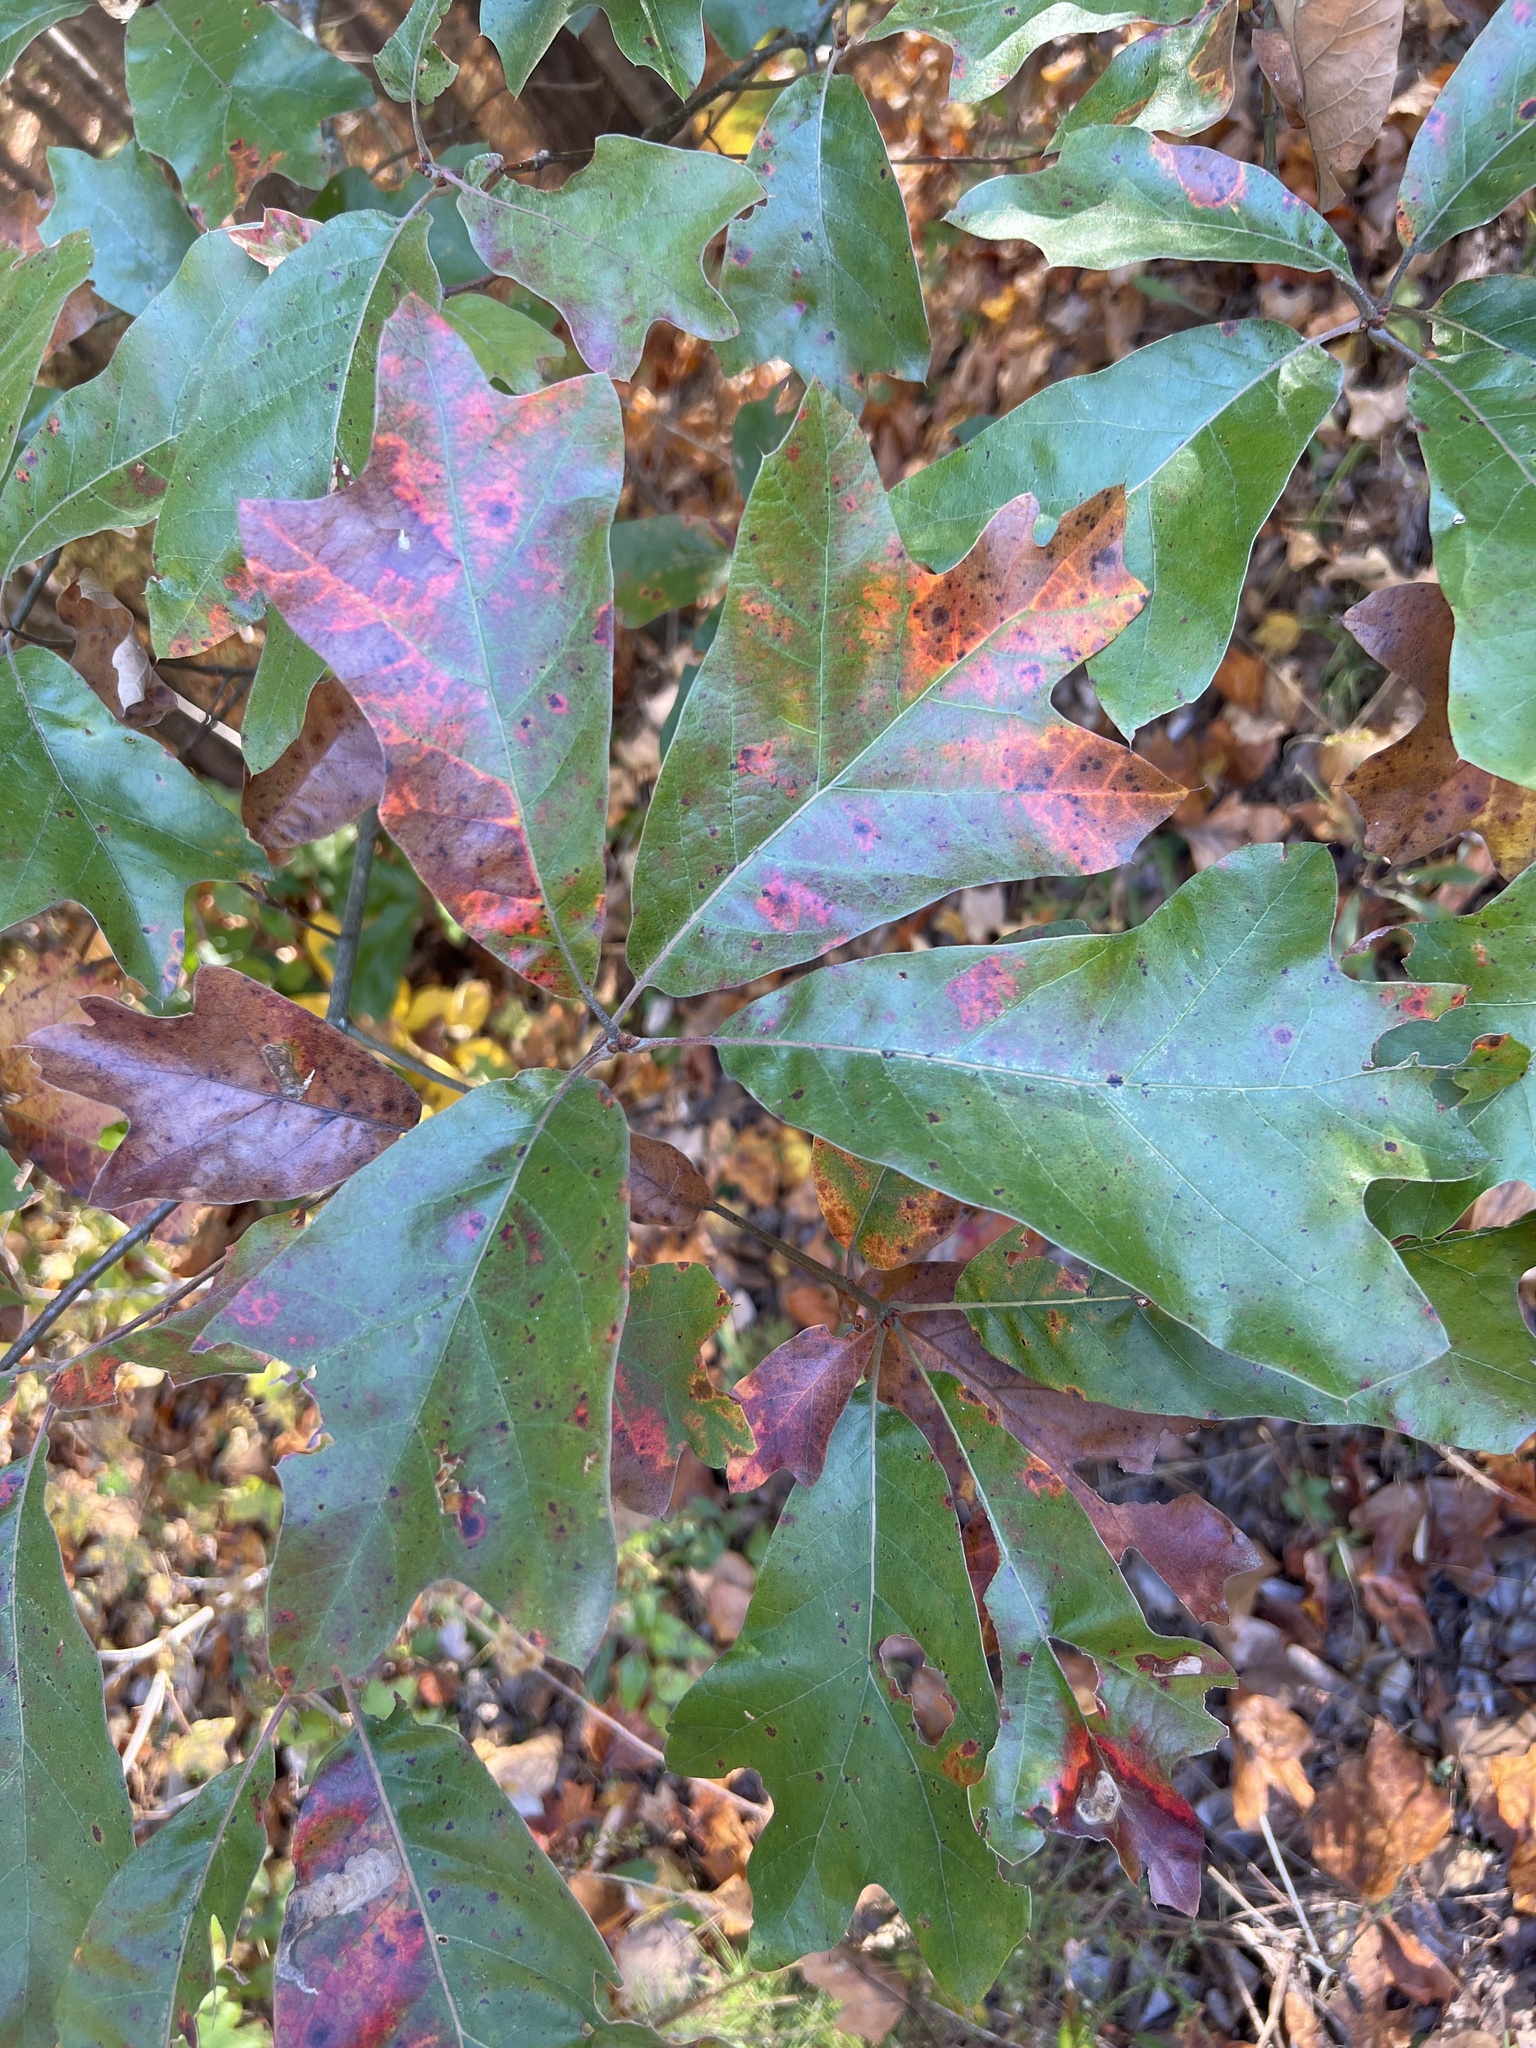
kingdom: Plantae
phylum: Tracheophyta
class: Magnoliopsida
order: Fagales
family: Fagaceae
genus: Quercus
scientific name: Quercus falcata
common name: Southern red oak
